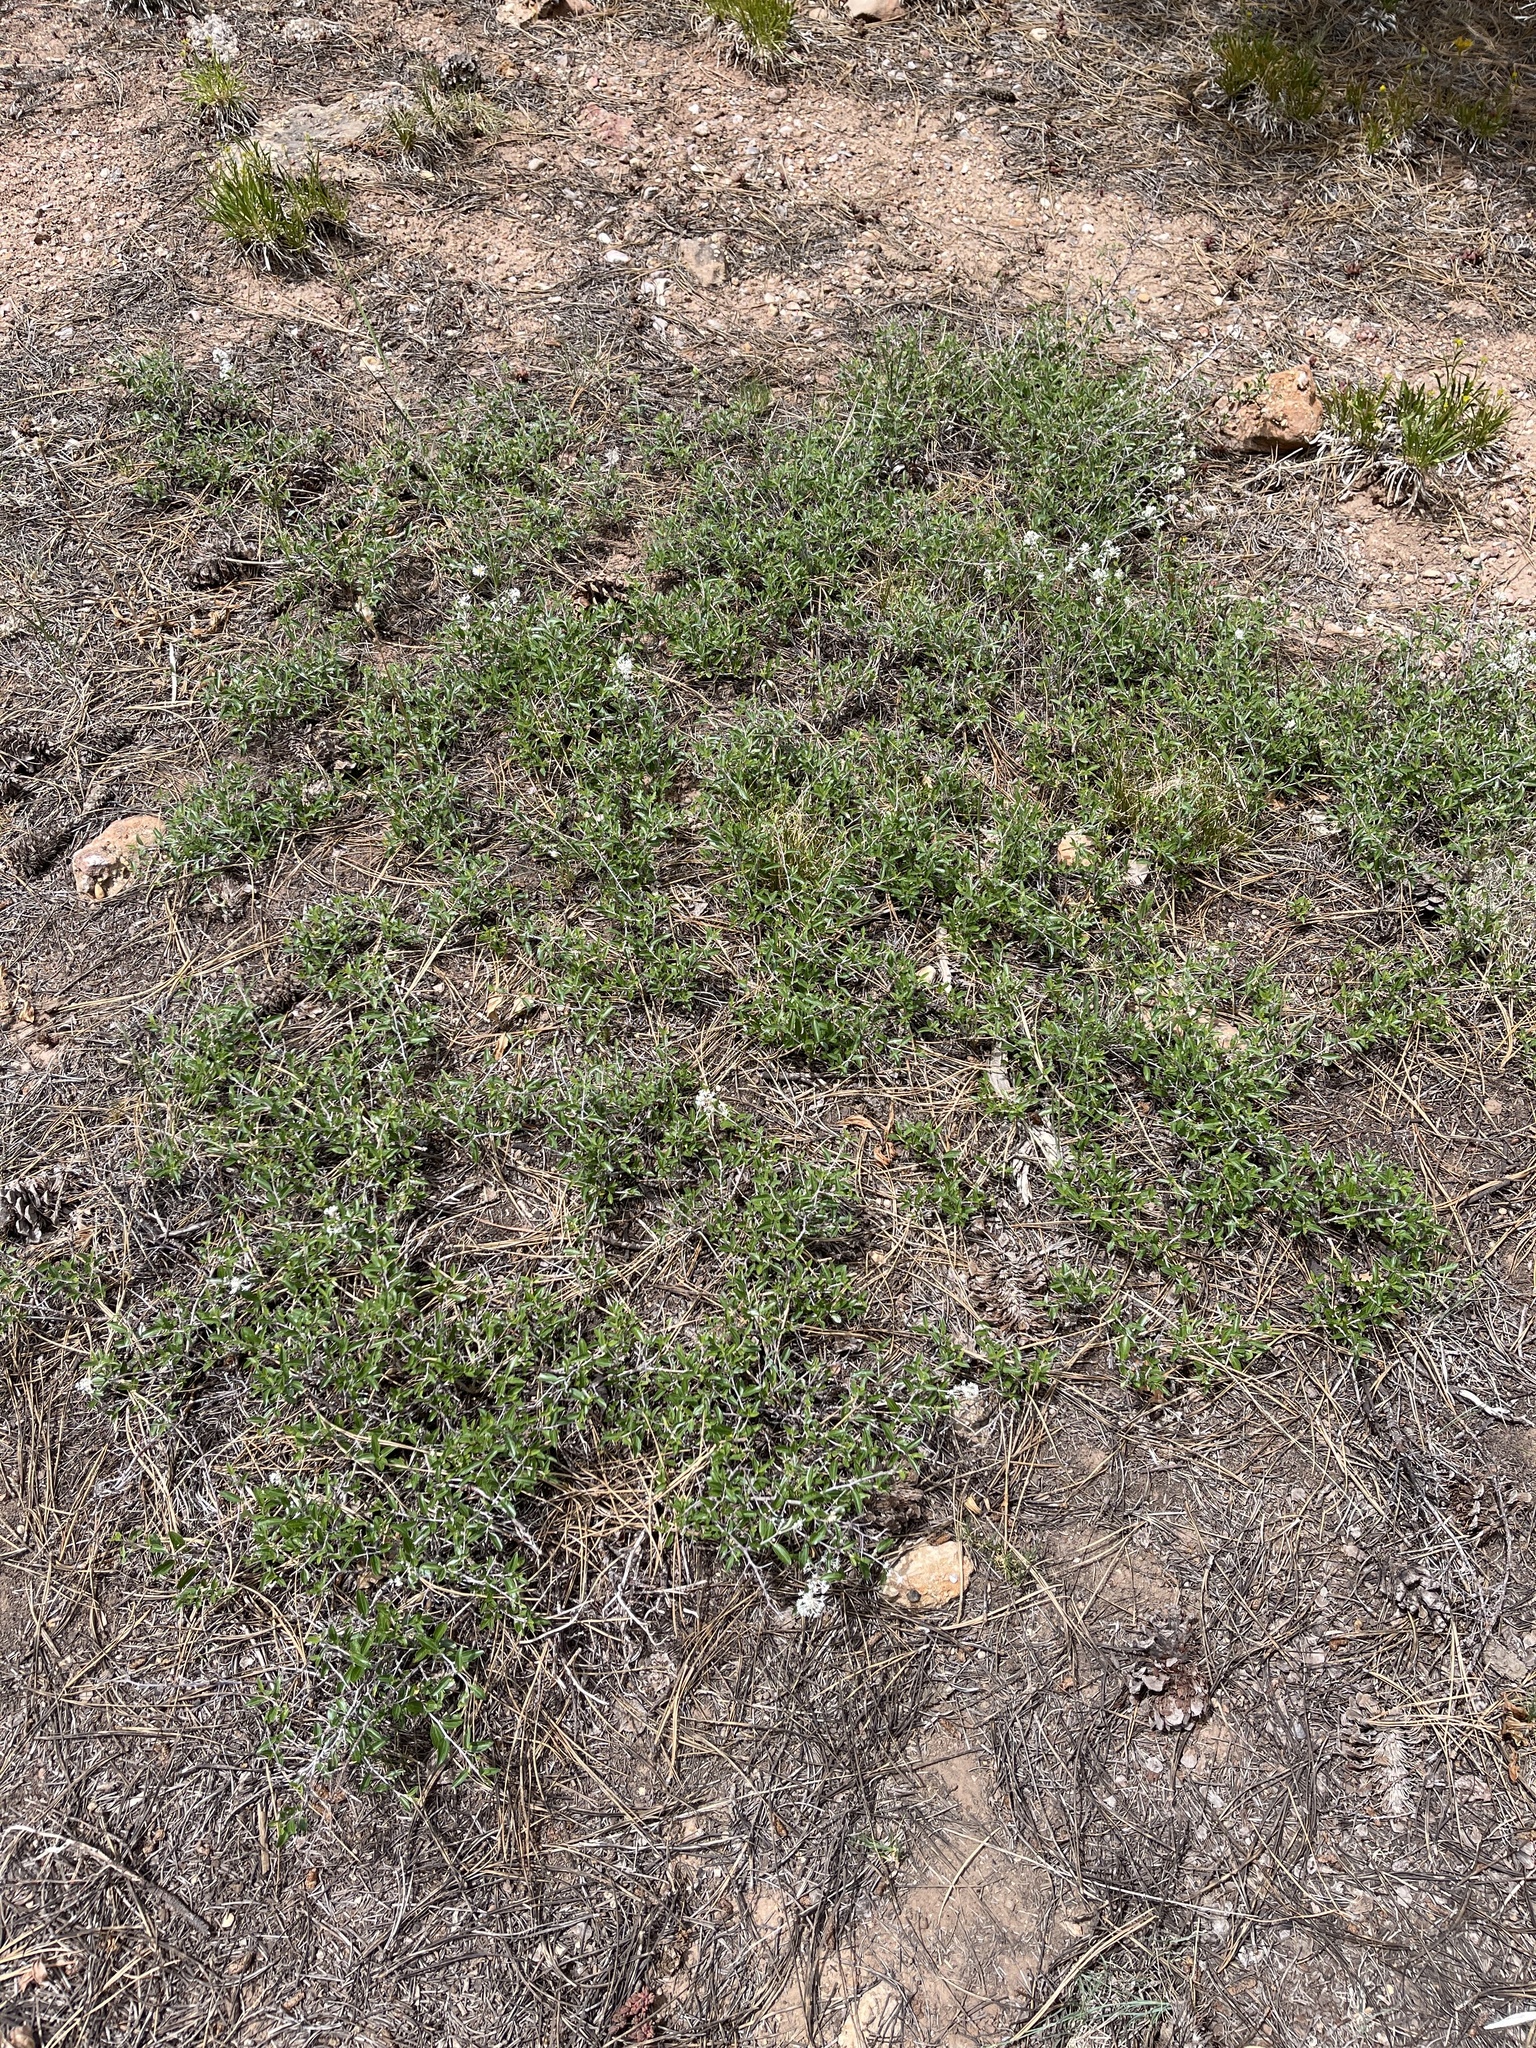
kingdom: Plantae
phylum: Tracheophyta
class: Magnoliopsida
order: Rosales
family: Rhamnaceae
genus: Ceanothus
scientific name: Ceanothus fendleri
